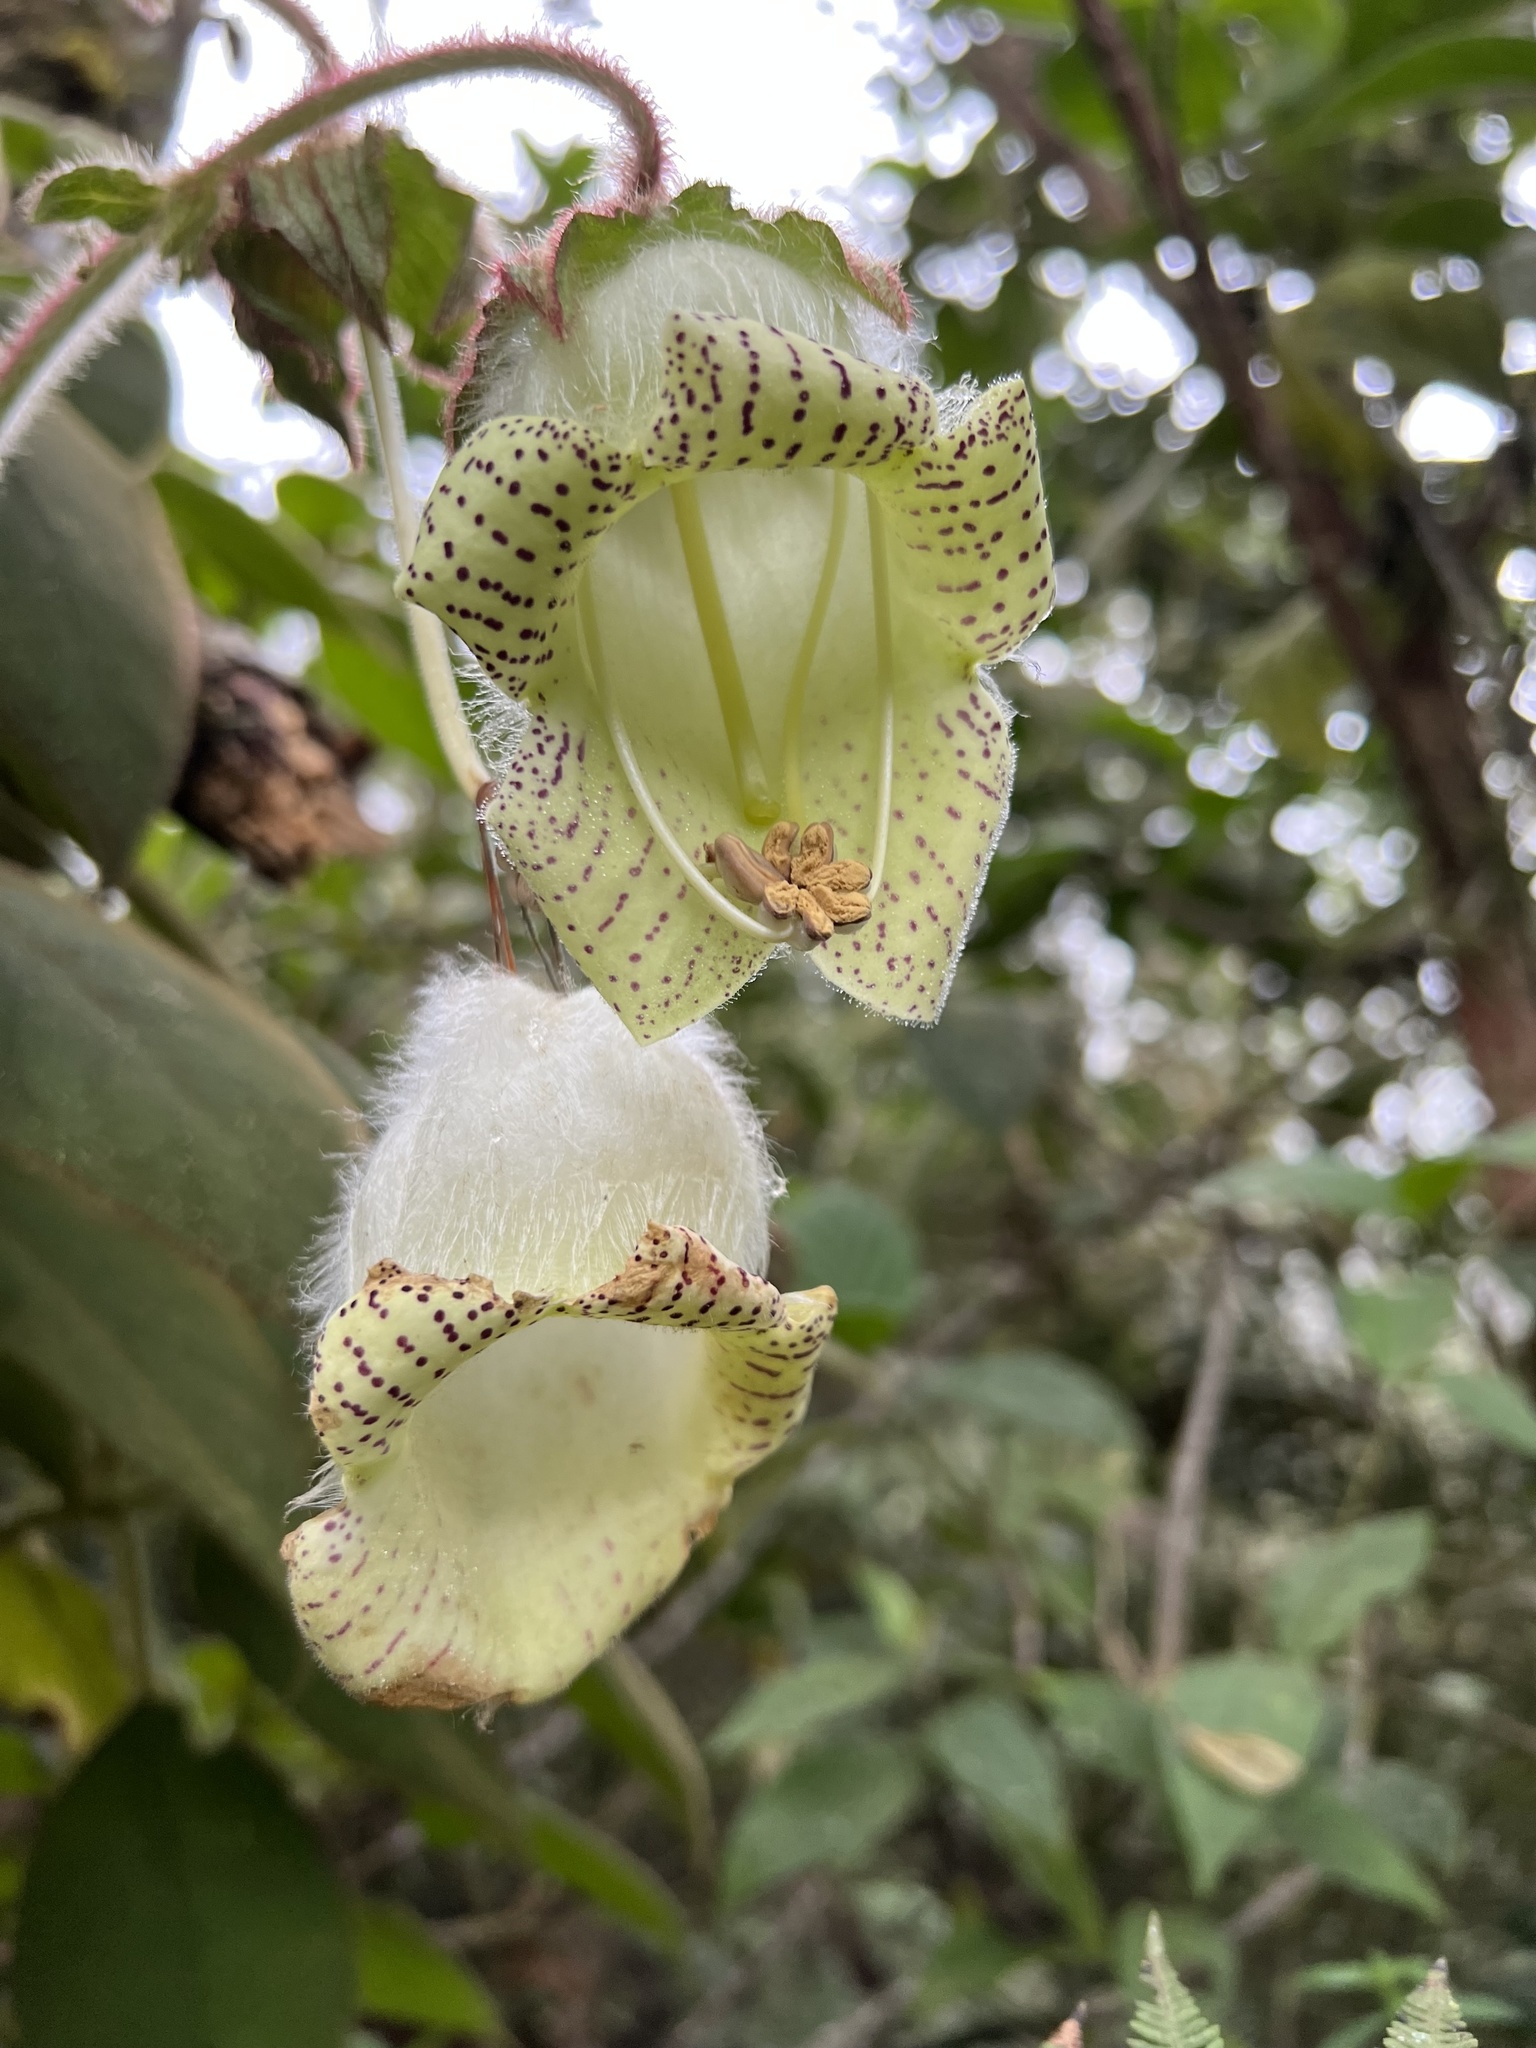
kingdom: Plantae
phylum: Tracheophyta
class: Magnoliopsida
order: Lamiales
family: Gesneriaceae
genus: Kohleria
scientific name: Kohleria tigridia
